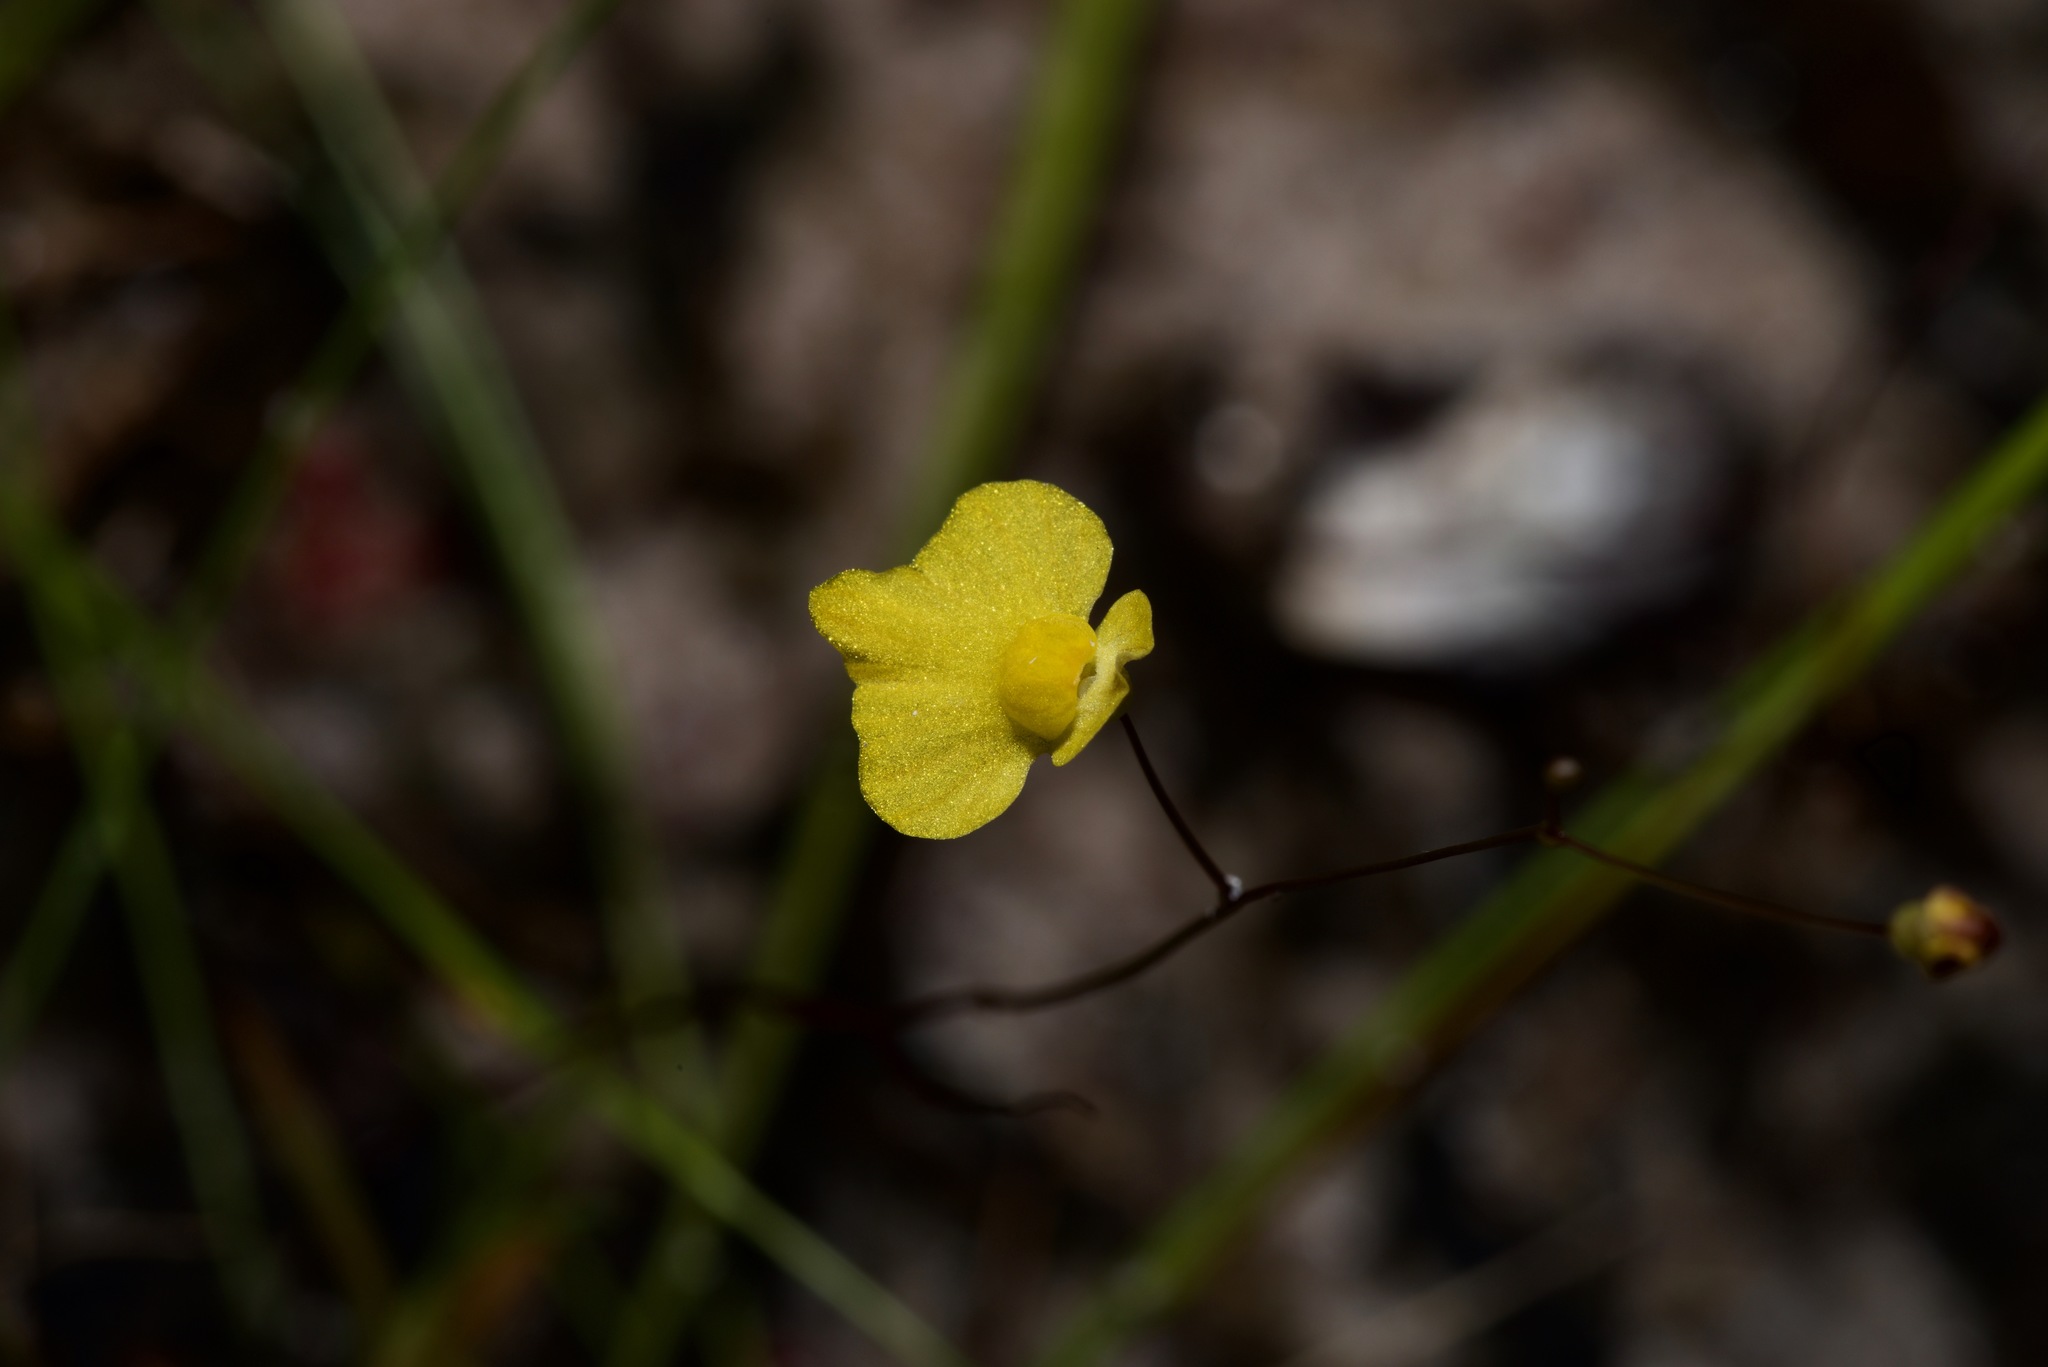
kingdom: Plantae
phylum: Tracheophyta
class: Magnoliopsida
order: Lamiales
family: Lentibulariaceae
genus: Utricularia
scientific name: Utricularia subulata
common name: Tiny bladderwort
